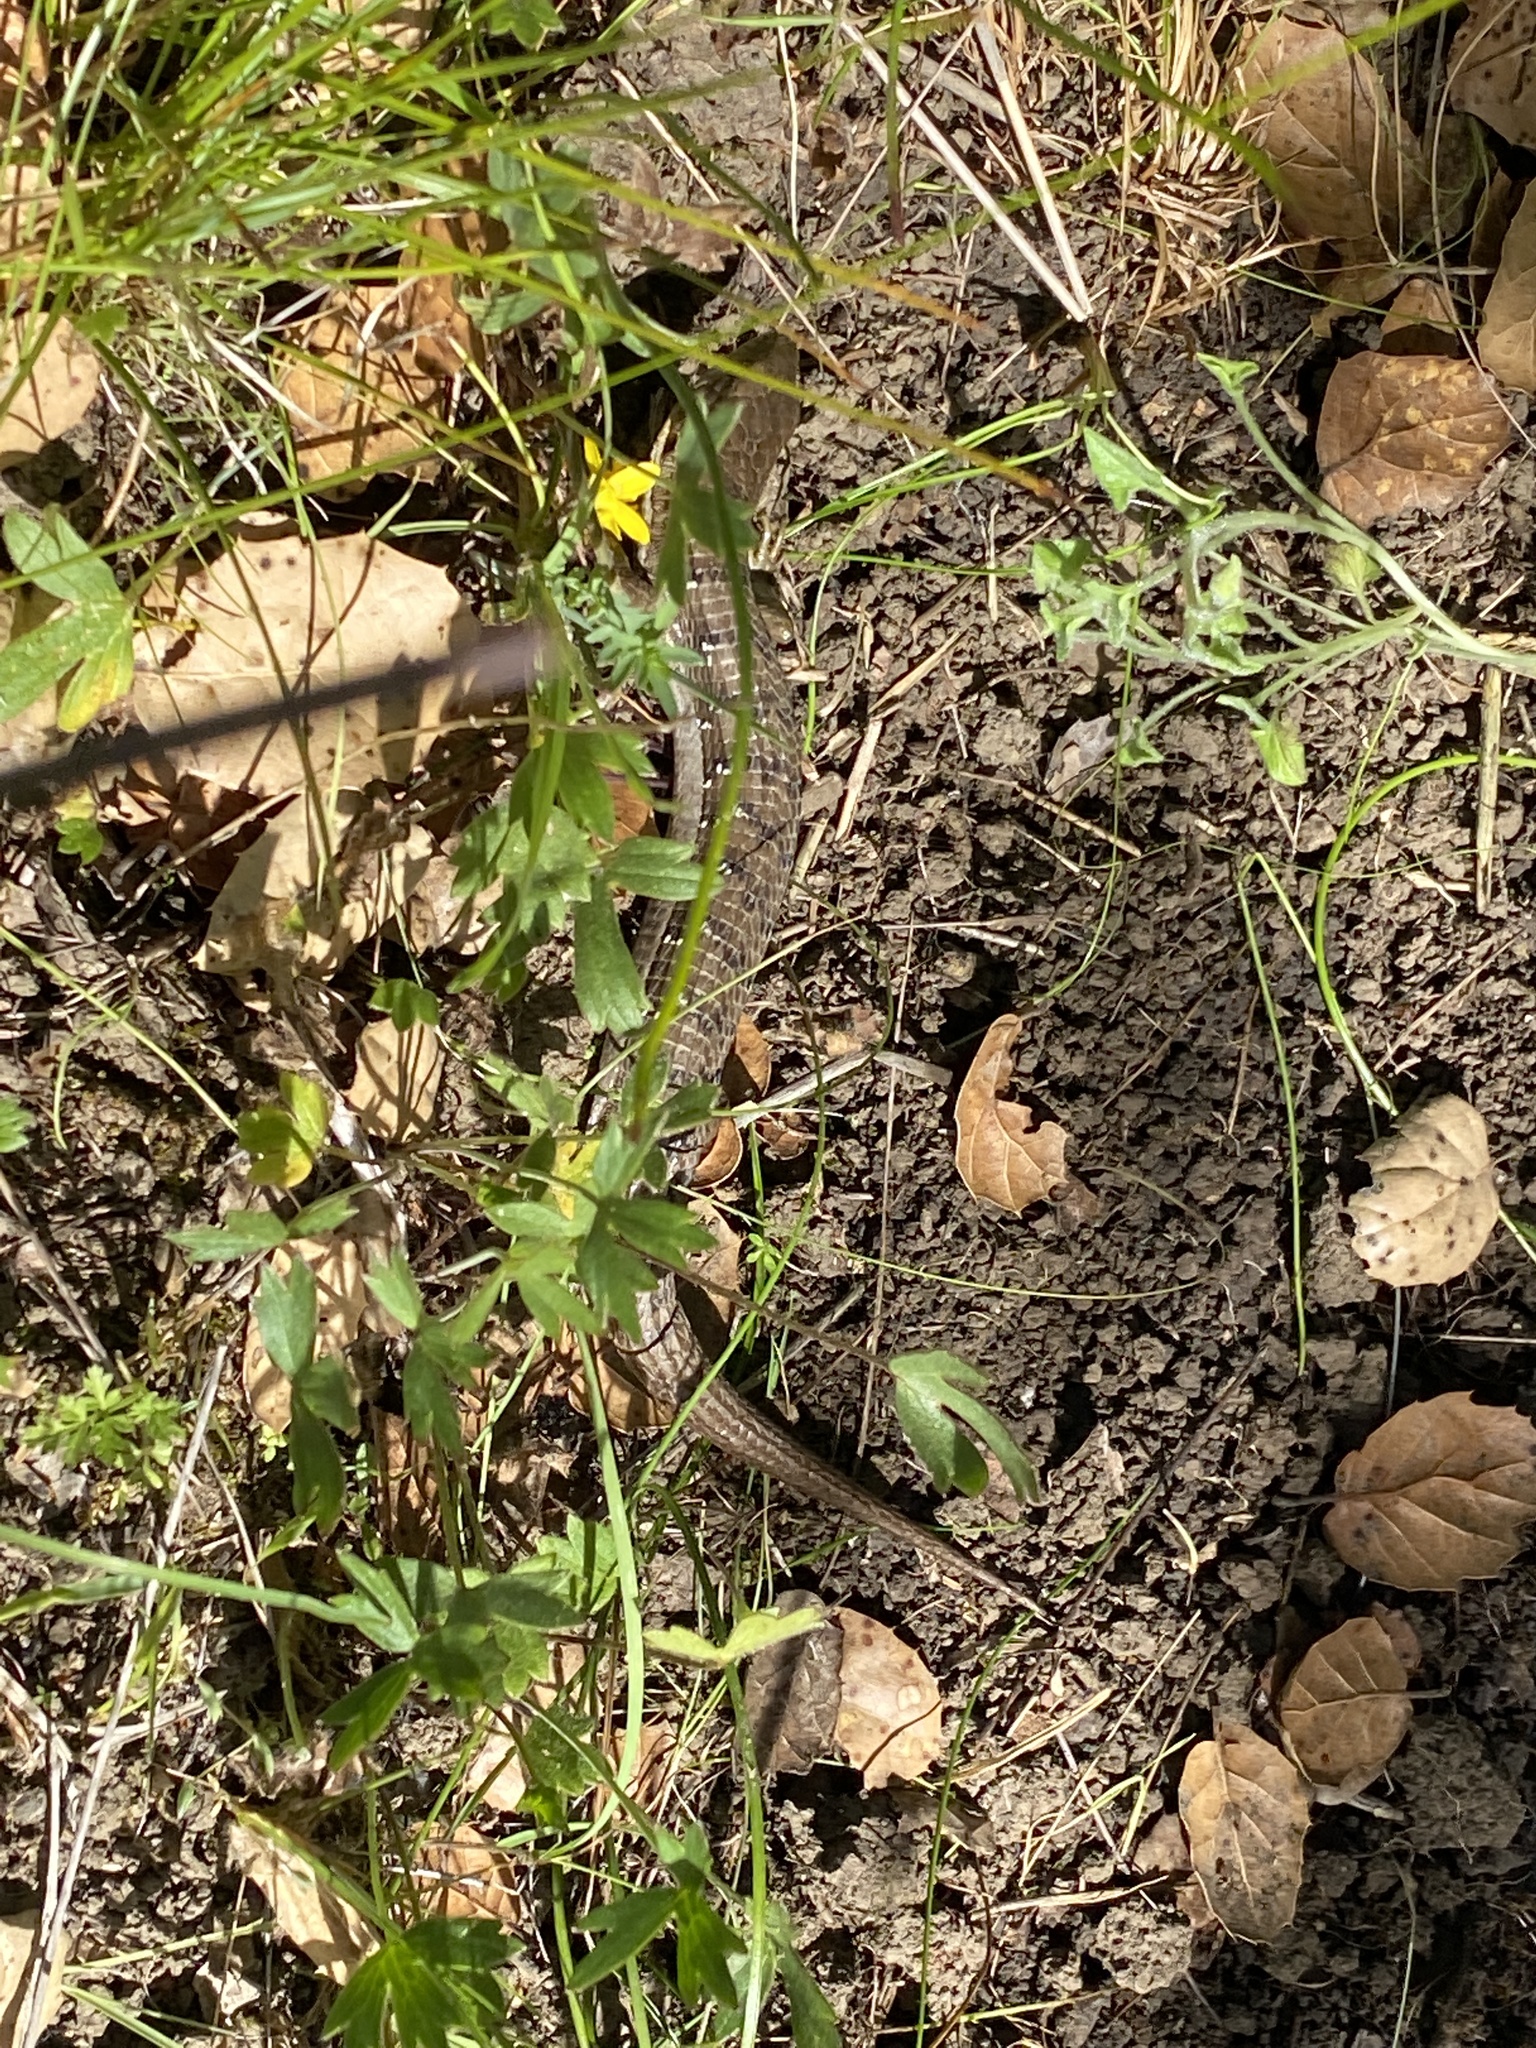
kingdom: Animalia
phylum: Chordata
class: Squamata
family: Anguidae
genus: Elgaria
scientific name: Elgaria multicarinata
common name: Southern alligator lizard
